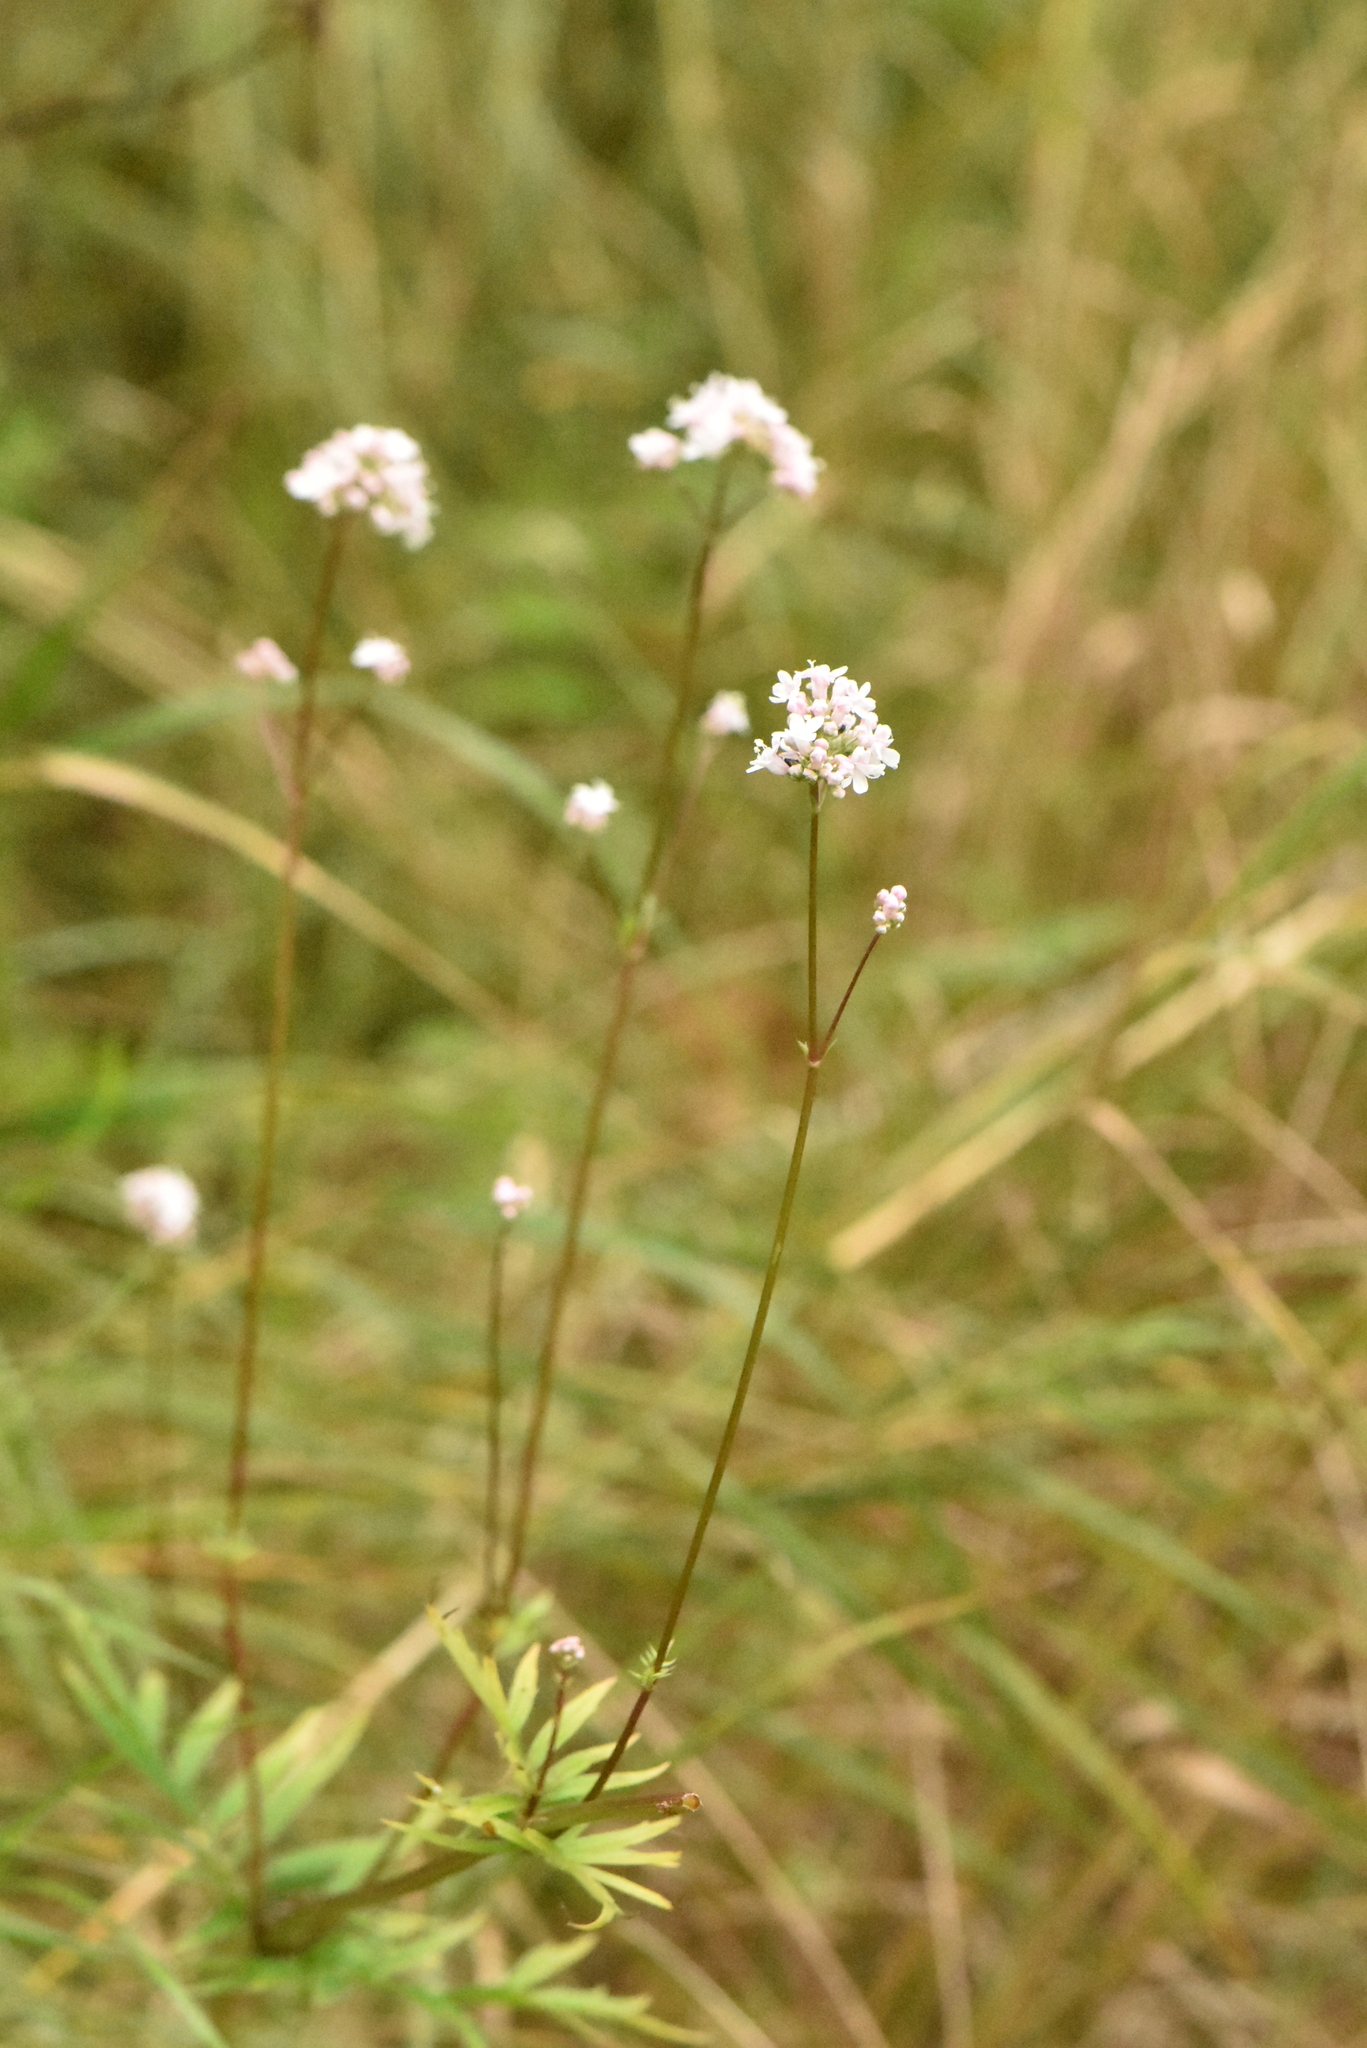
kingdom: Plantae
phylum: Tracheophyta
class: Magnoliopsida
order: Dipsacales
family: Caprifoliaceae
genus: Valeriana
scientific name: Valeriana officinalis
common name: Common valerian
